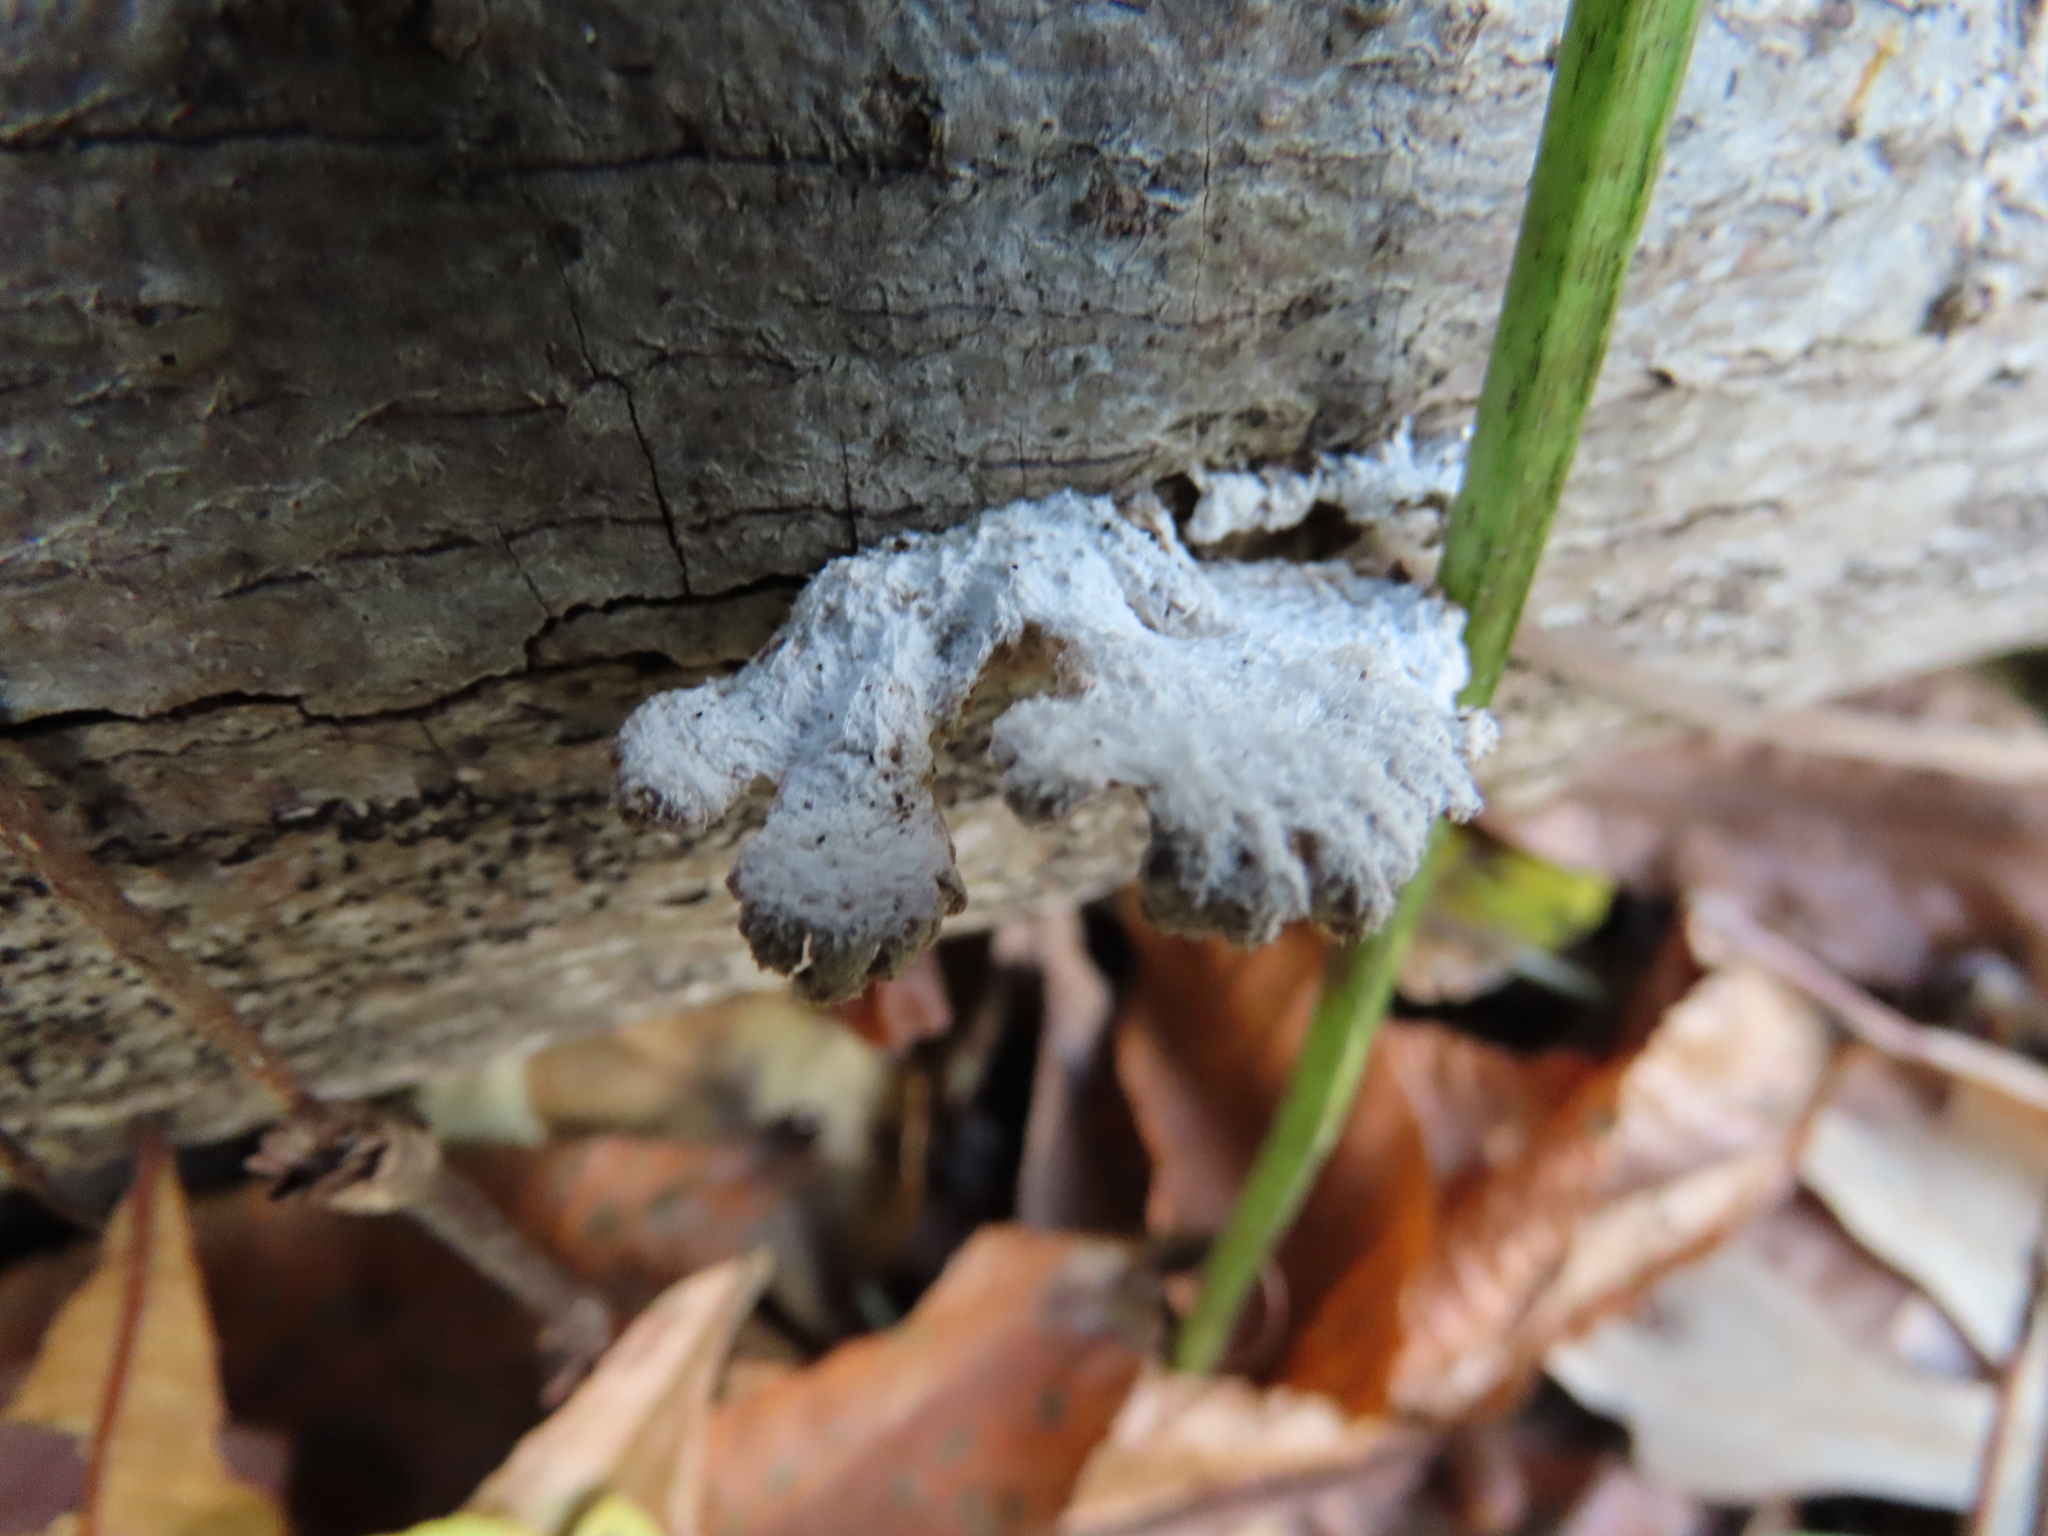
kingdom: Fungi
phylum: Basidiomycota
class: Agaricomycetes
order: Agaricales
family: Schizophyllaceae
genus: Schizophyllum
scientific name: Schizophyllum commune
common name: Common porecrust
